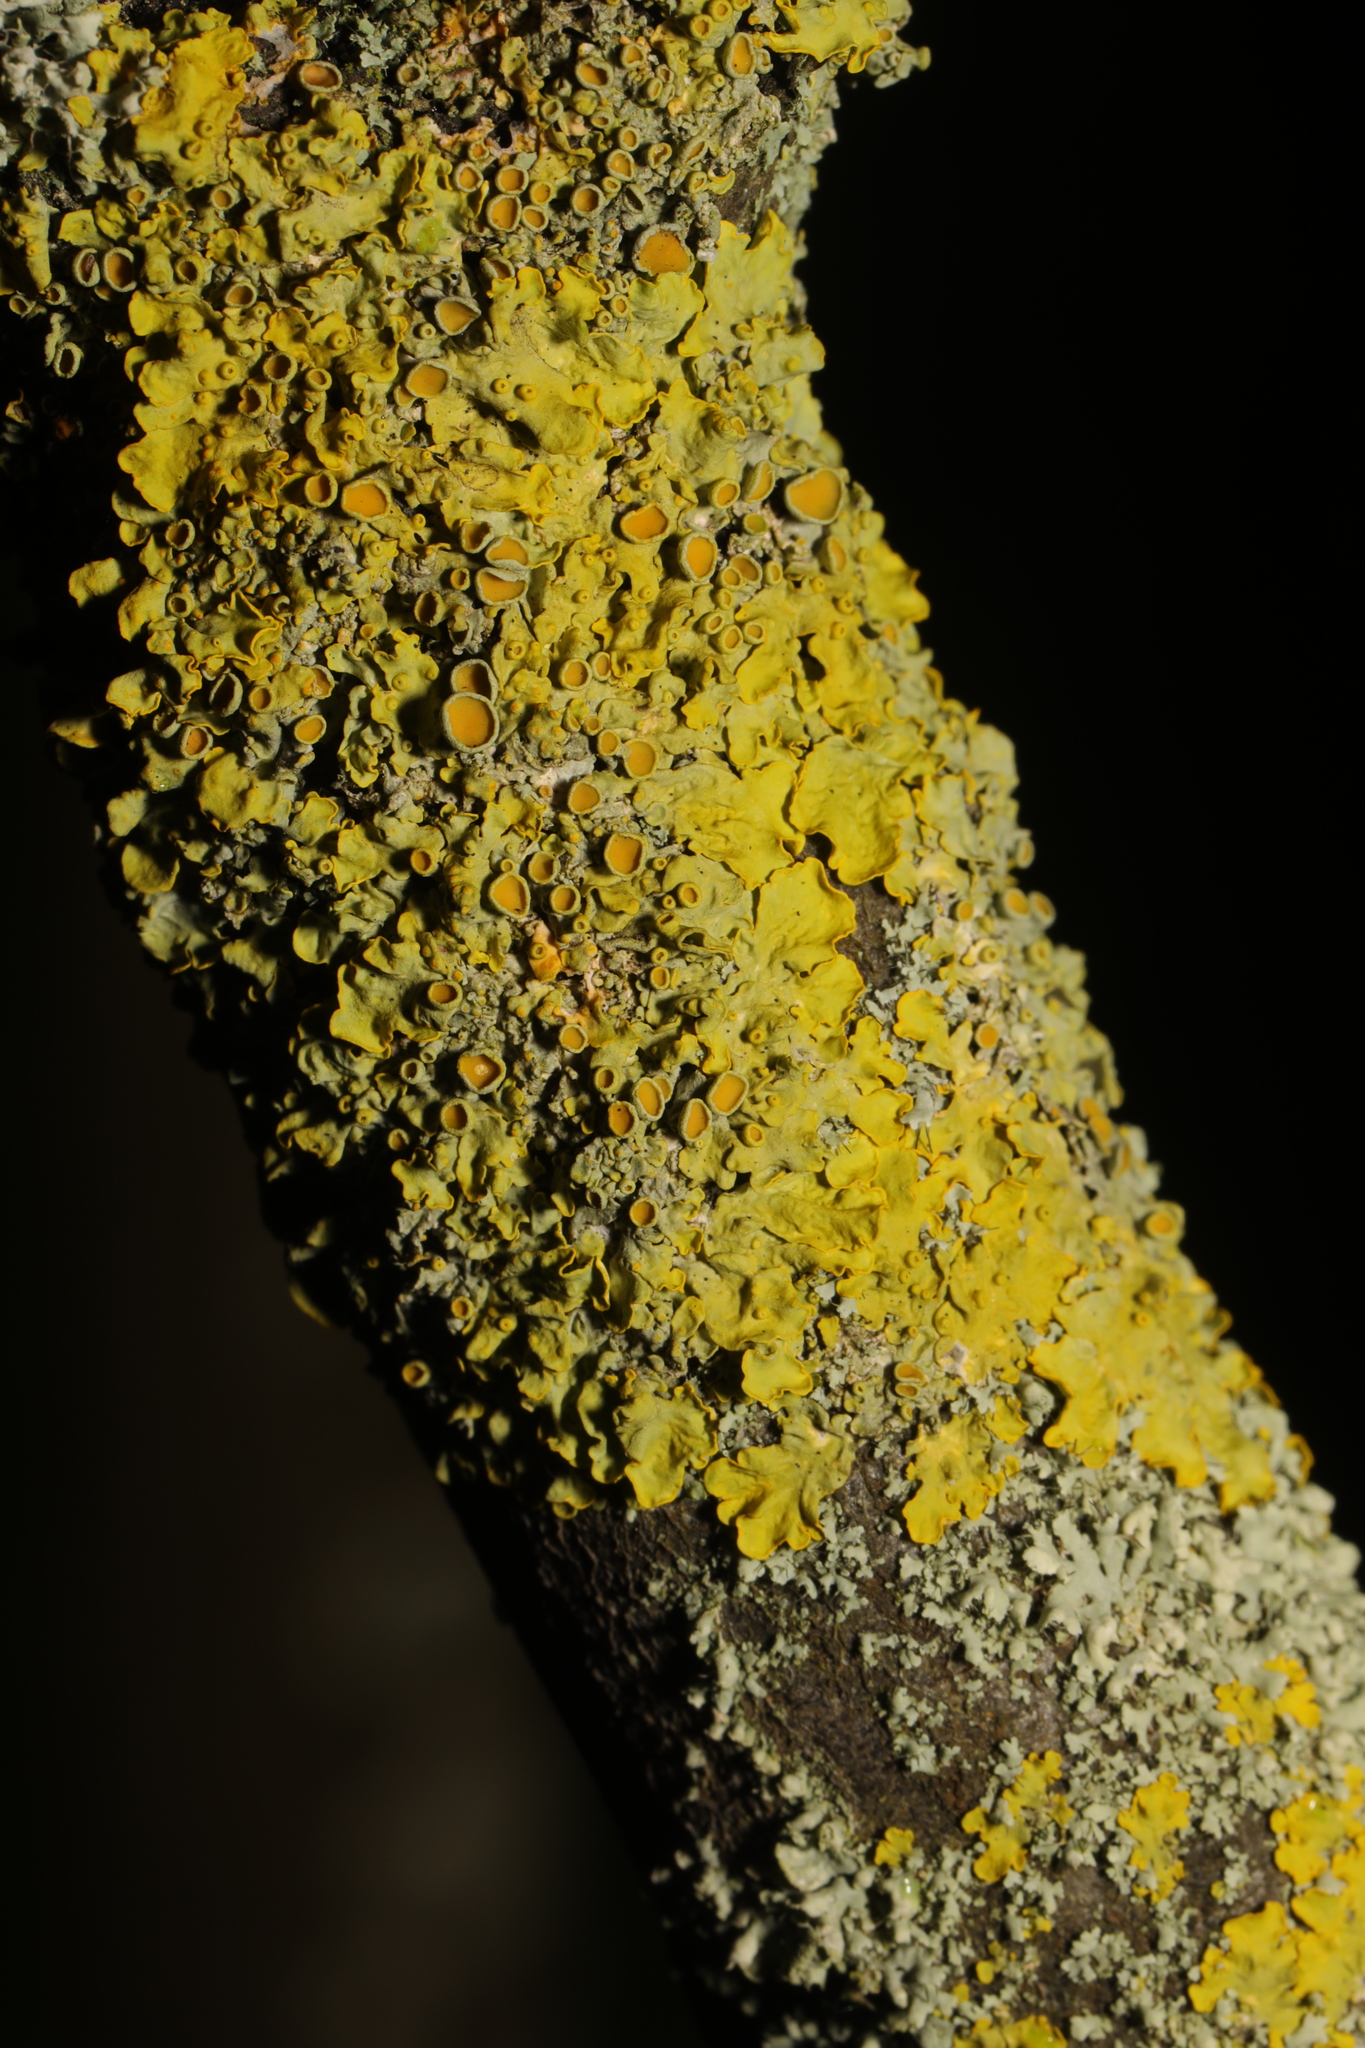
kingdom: Fungi
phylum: Ascomycota
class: Lecanoromycetes
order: Teloschistales
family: Teloschistaceae
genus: Xanthoria
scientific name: Xanthoria parietina
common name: Common orange lichen
